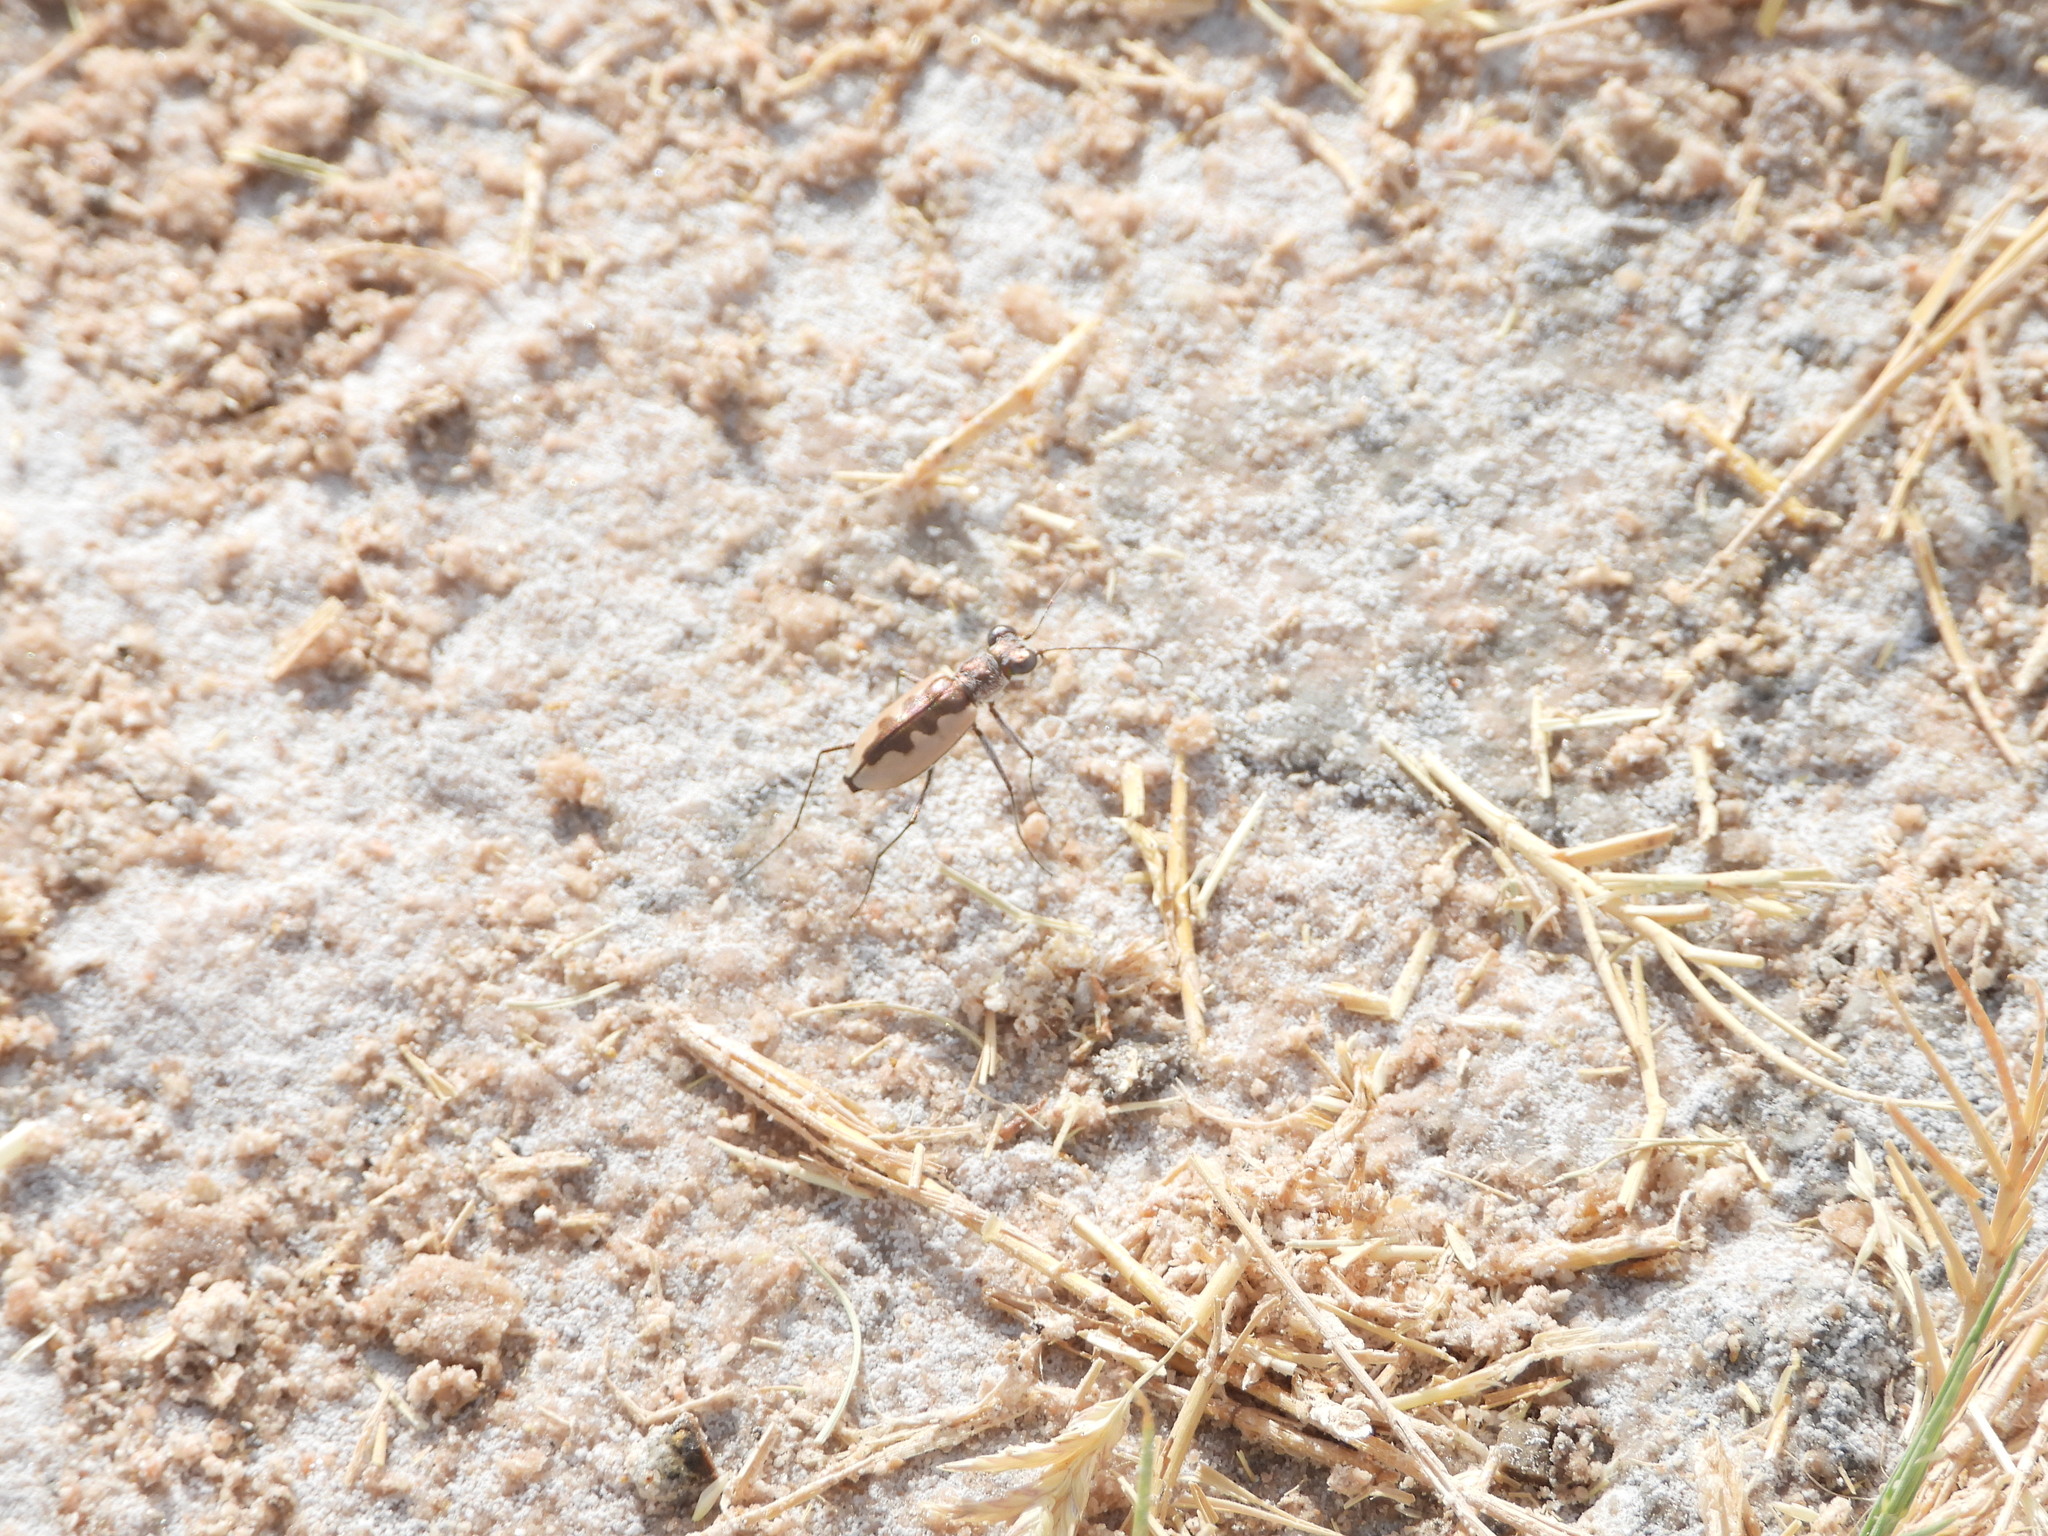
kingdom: Animalia
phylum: Arthropoda
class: Insecta
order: Coleoptera
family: Carabidae
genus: Eunota
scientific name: Eunota togata
